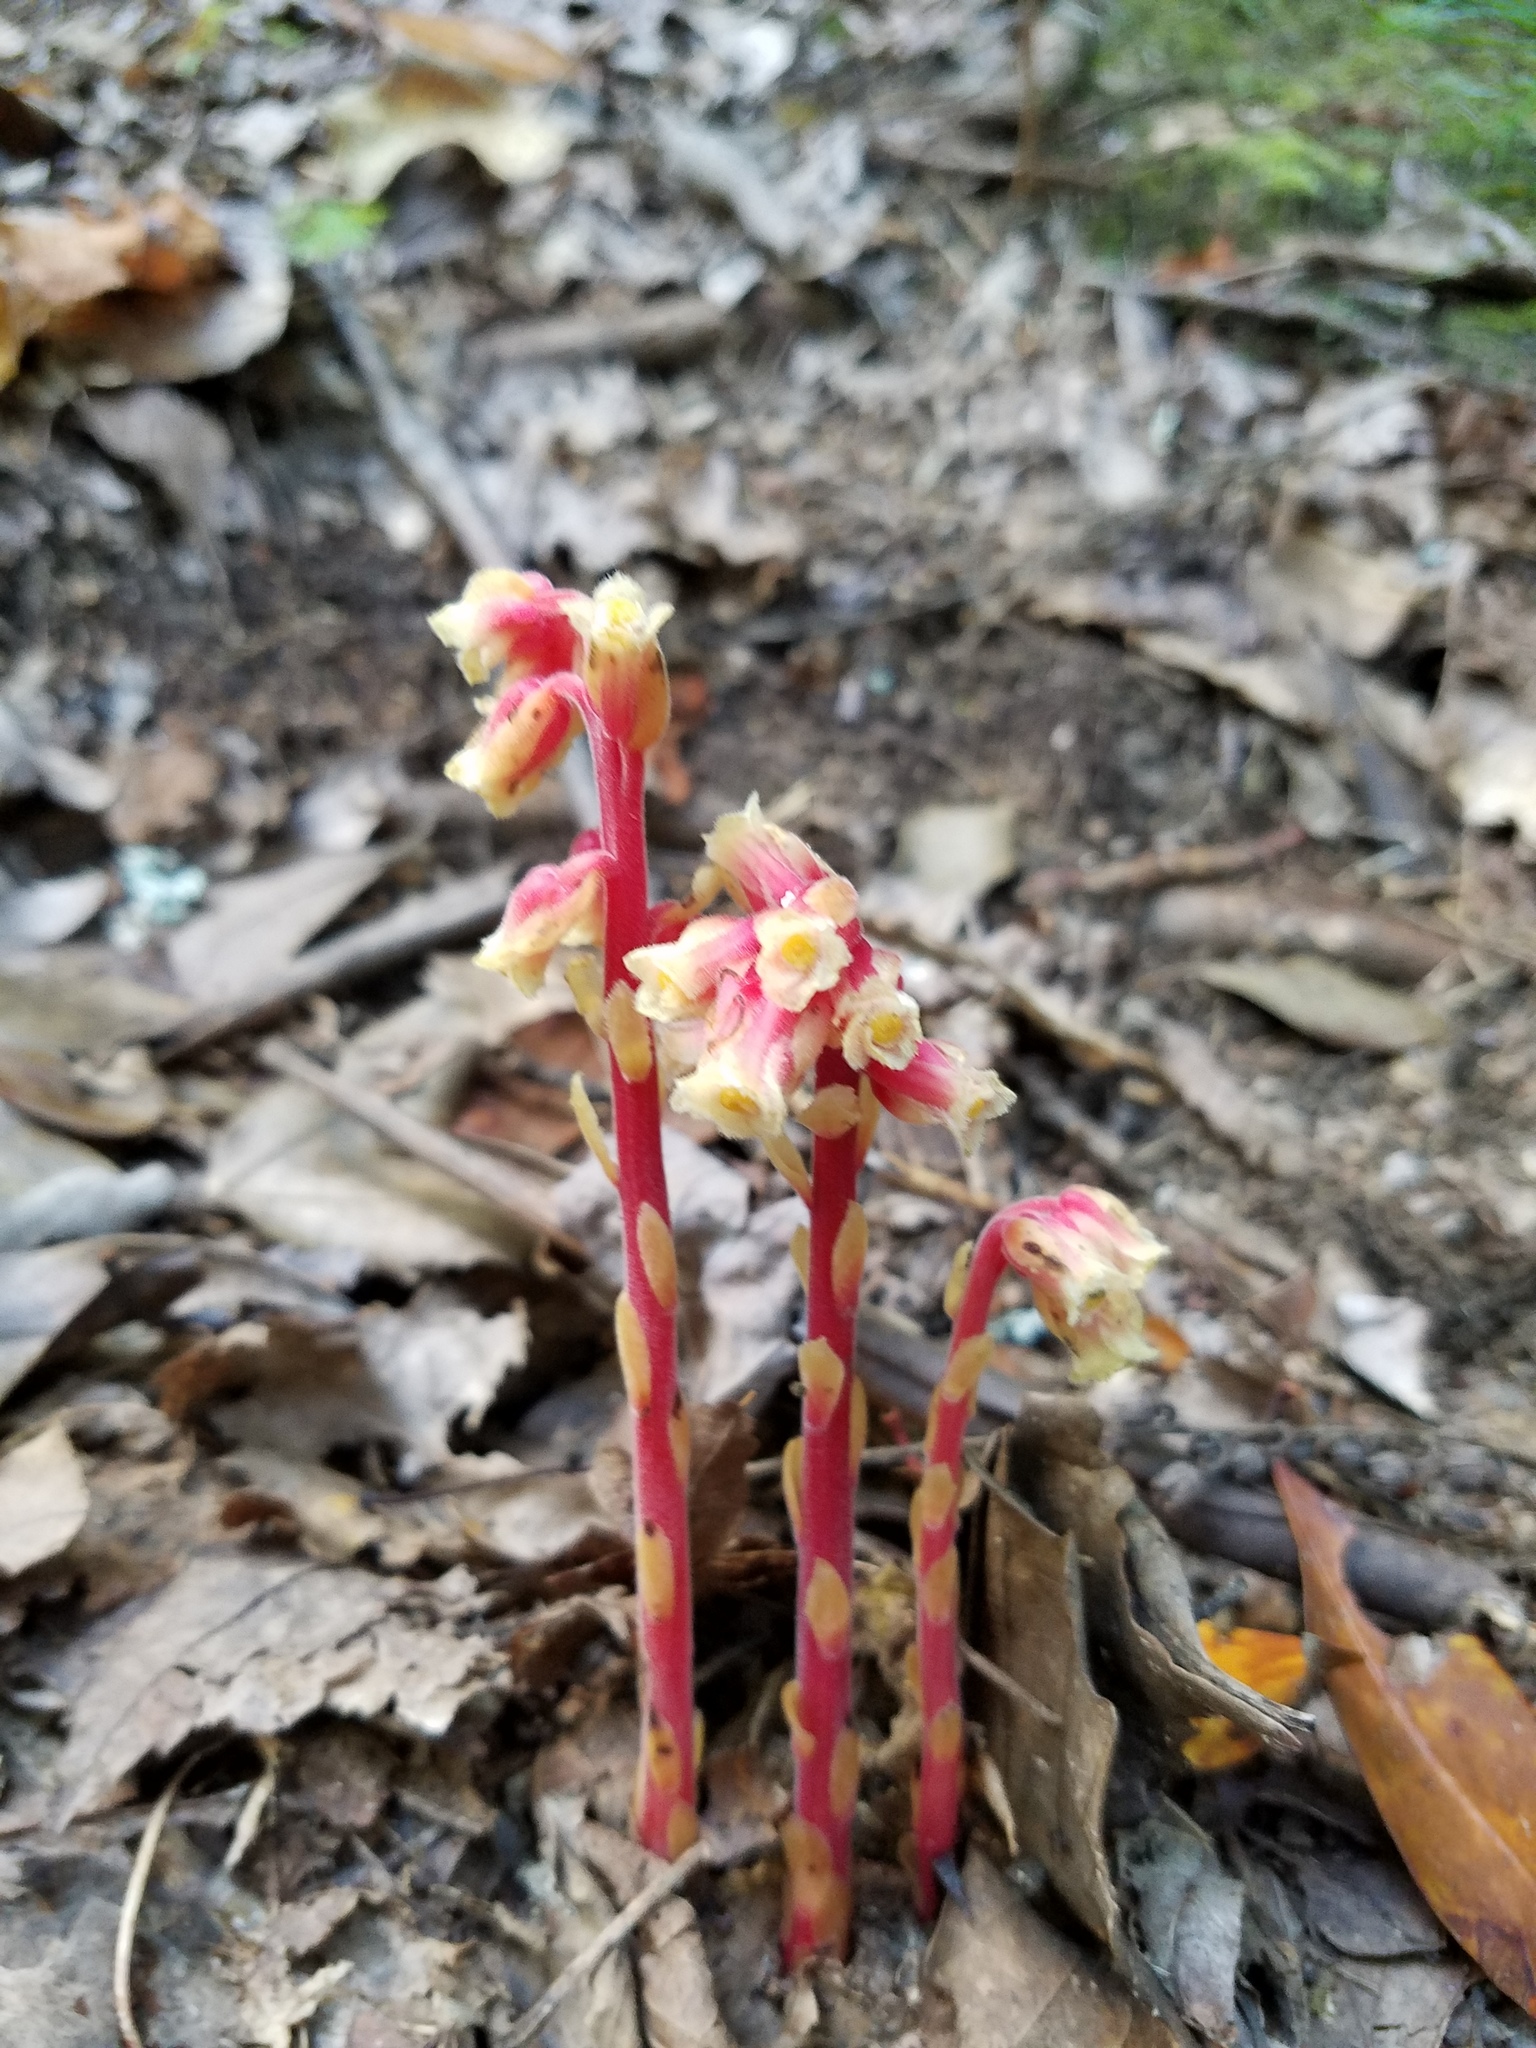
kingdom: Plantae
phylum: Tracheophyta
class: Magnoliopsida
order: Ericales
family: Ericaceae
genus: Hypopitys
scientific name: Hypopitys monotropa
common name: Yellow bird's-nest
